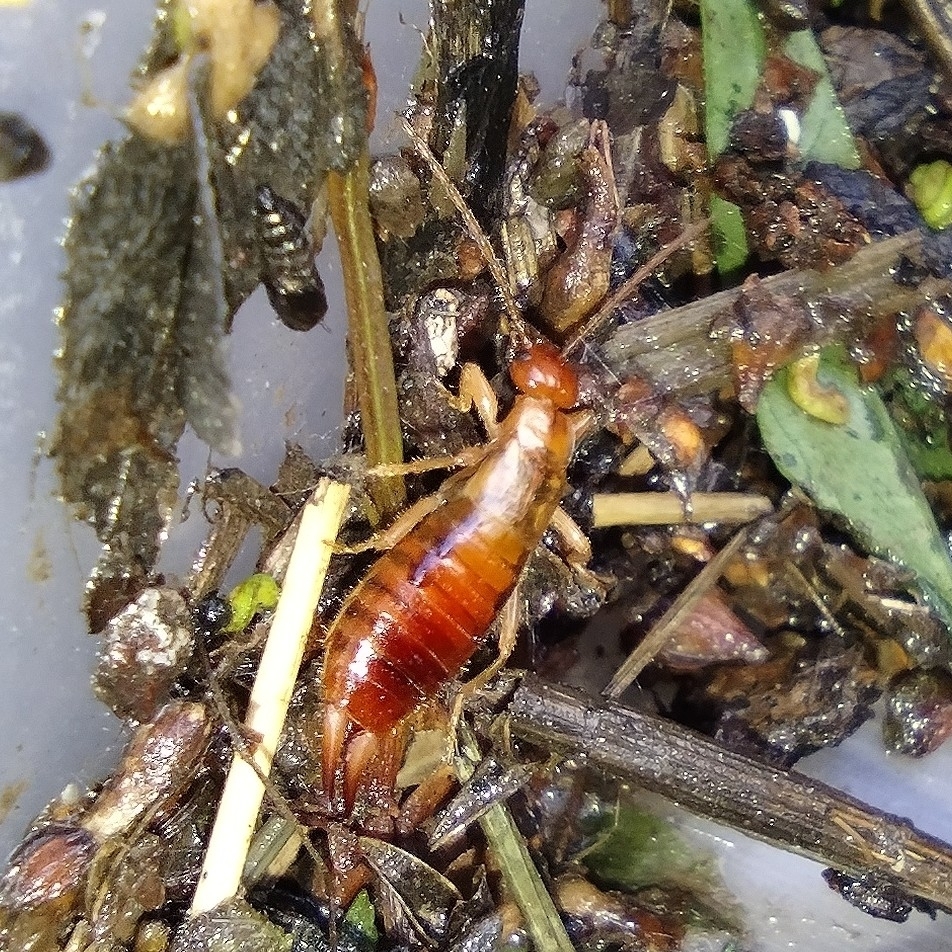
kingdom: Animalia
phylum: Arthropoda
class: Insecta
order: Dermaptera
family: Forficulidae
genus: Apterygida
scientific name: Apterygida albipennis
